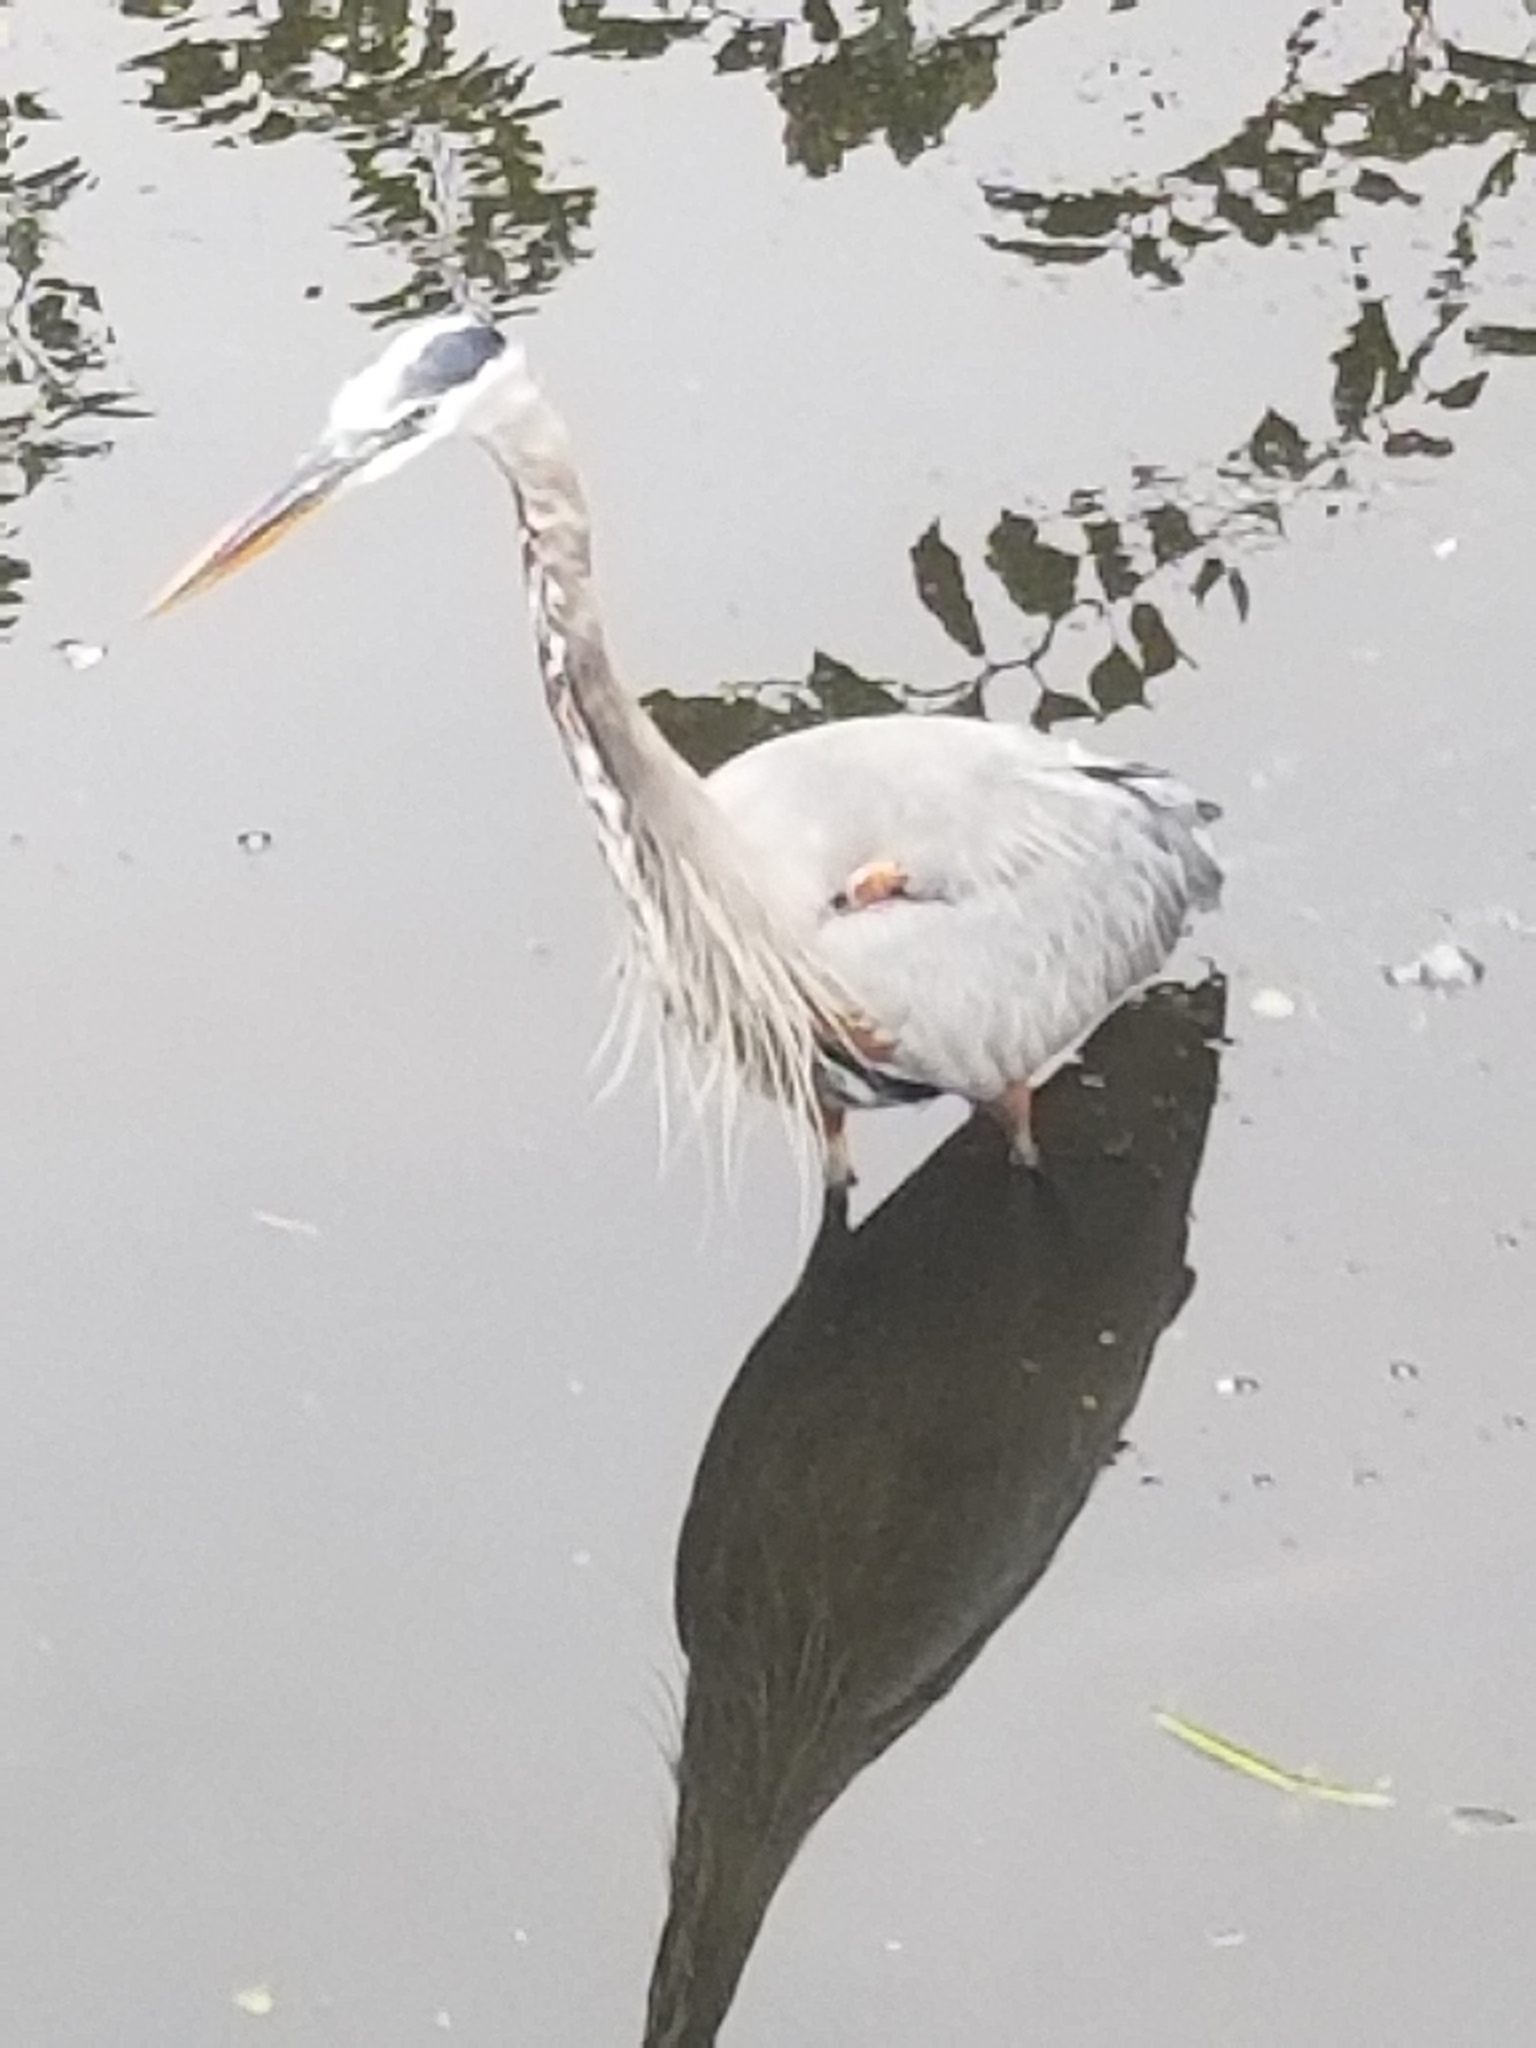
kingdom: Animalia
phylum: Chordata
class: Aves
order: Pelecaniformes
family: Ardeidae
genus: Ardea
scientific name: Ardea herodias
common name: Great blue heron
